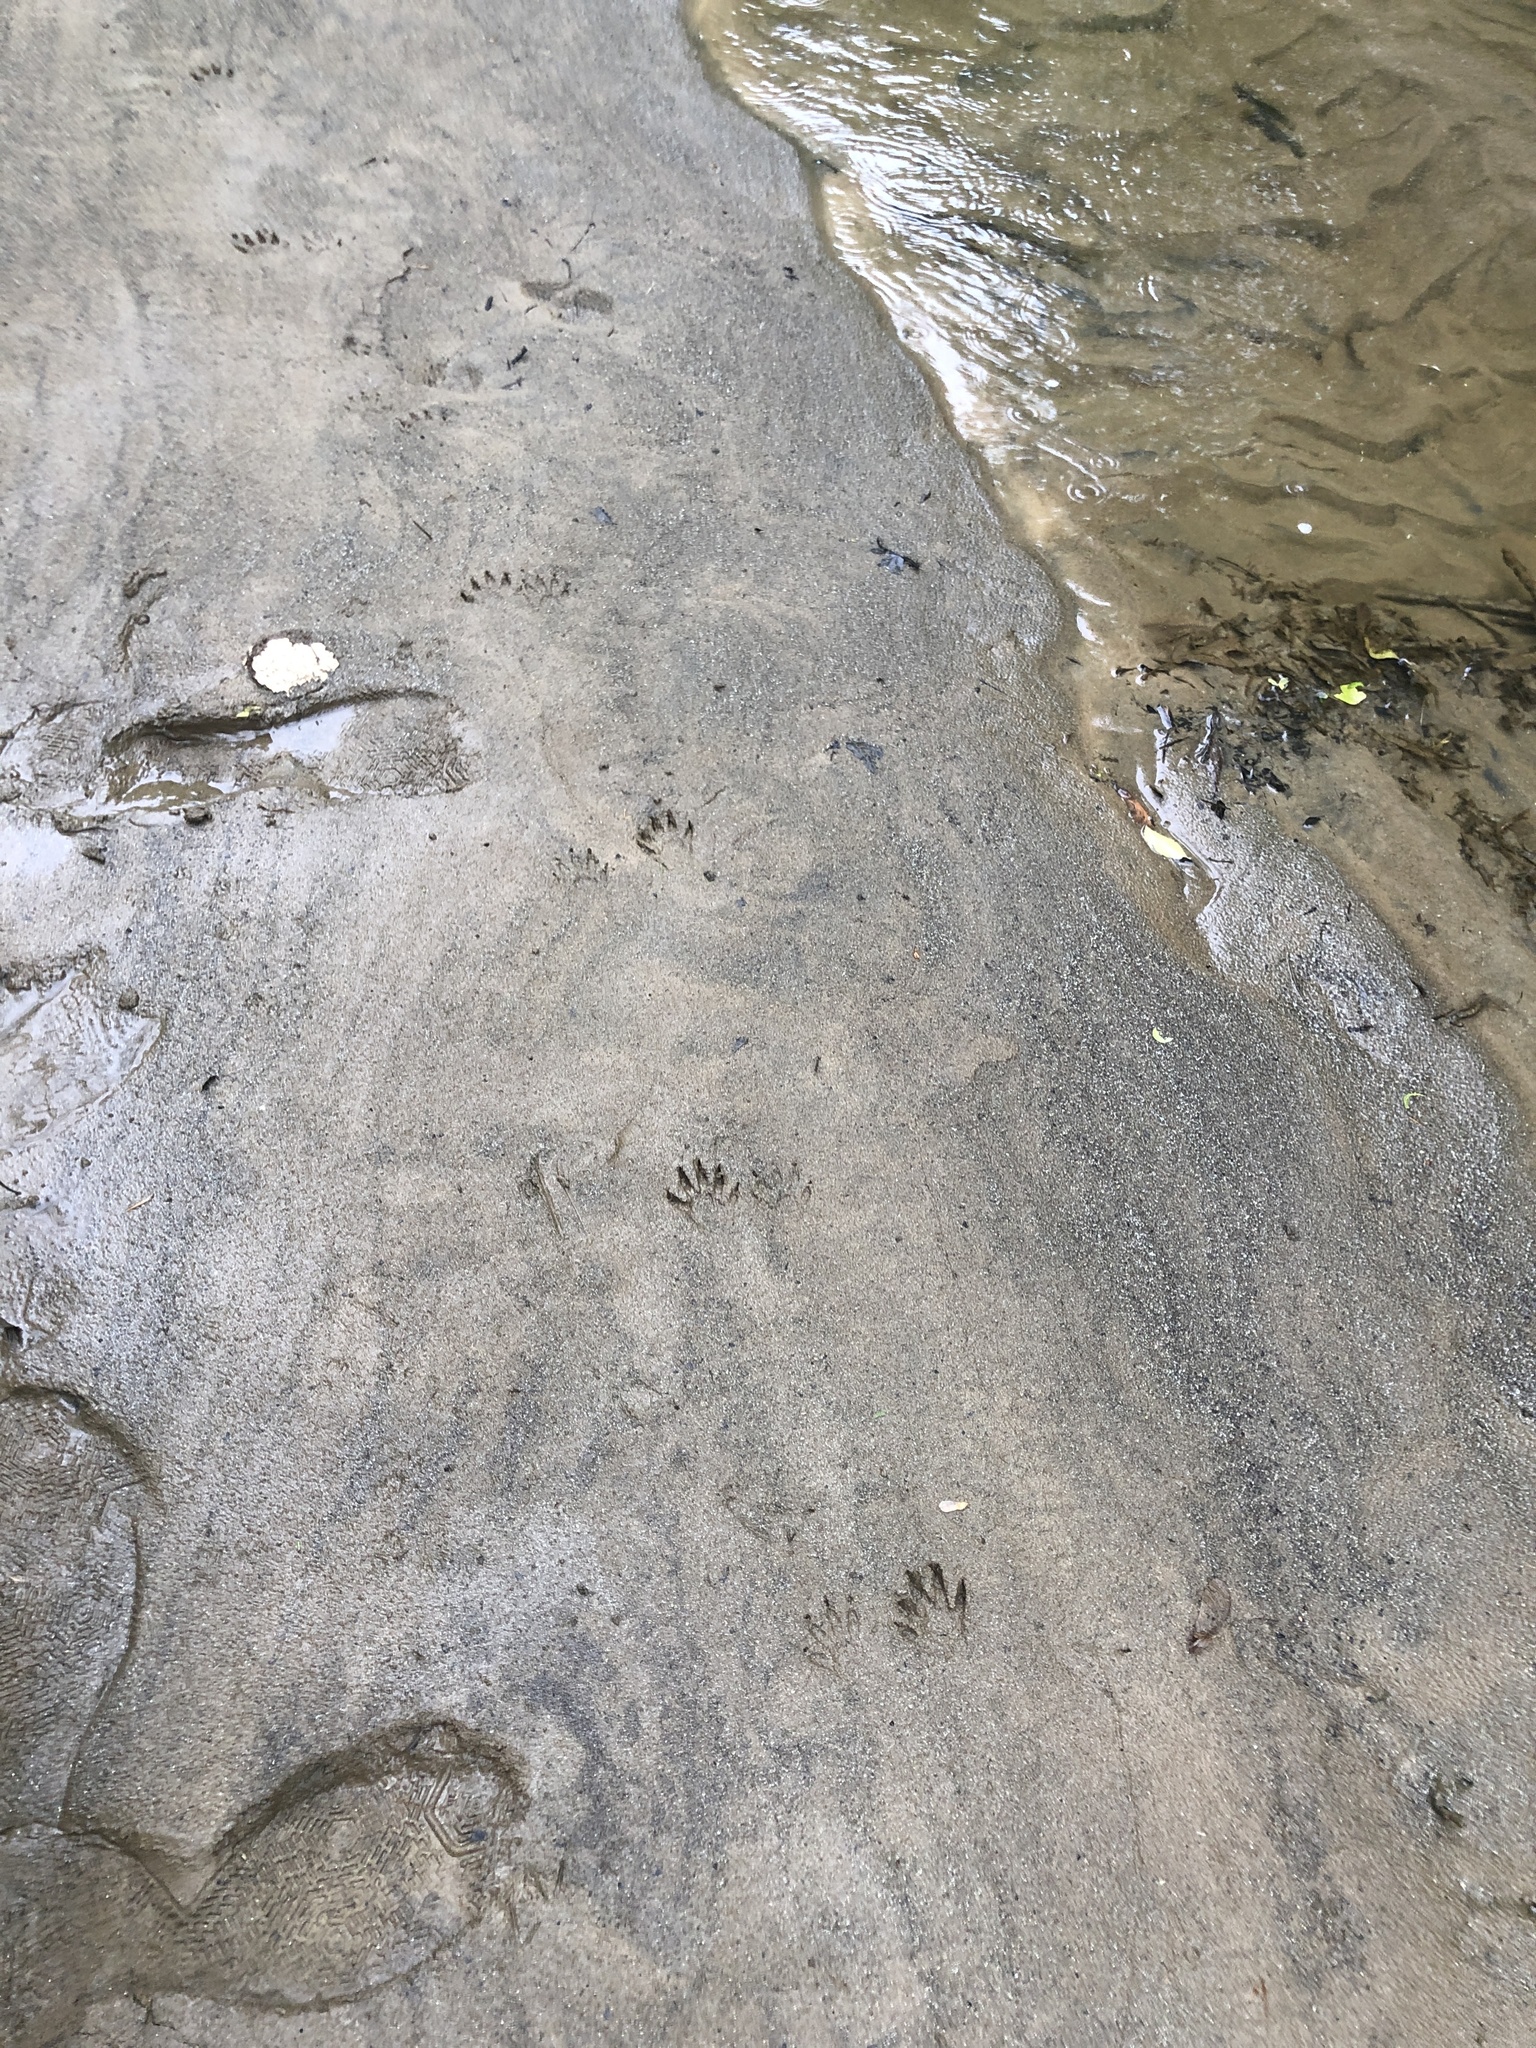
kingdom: Animalia
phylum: Chordata
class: Mammalia
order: Carnivora
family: Procyonidae
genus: Procyon
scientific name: Procyon lotor
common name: Raccoon
